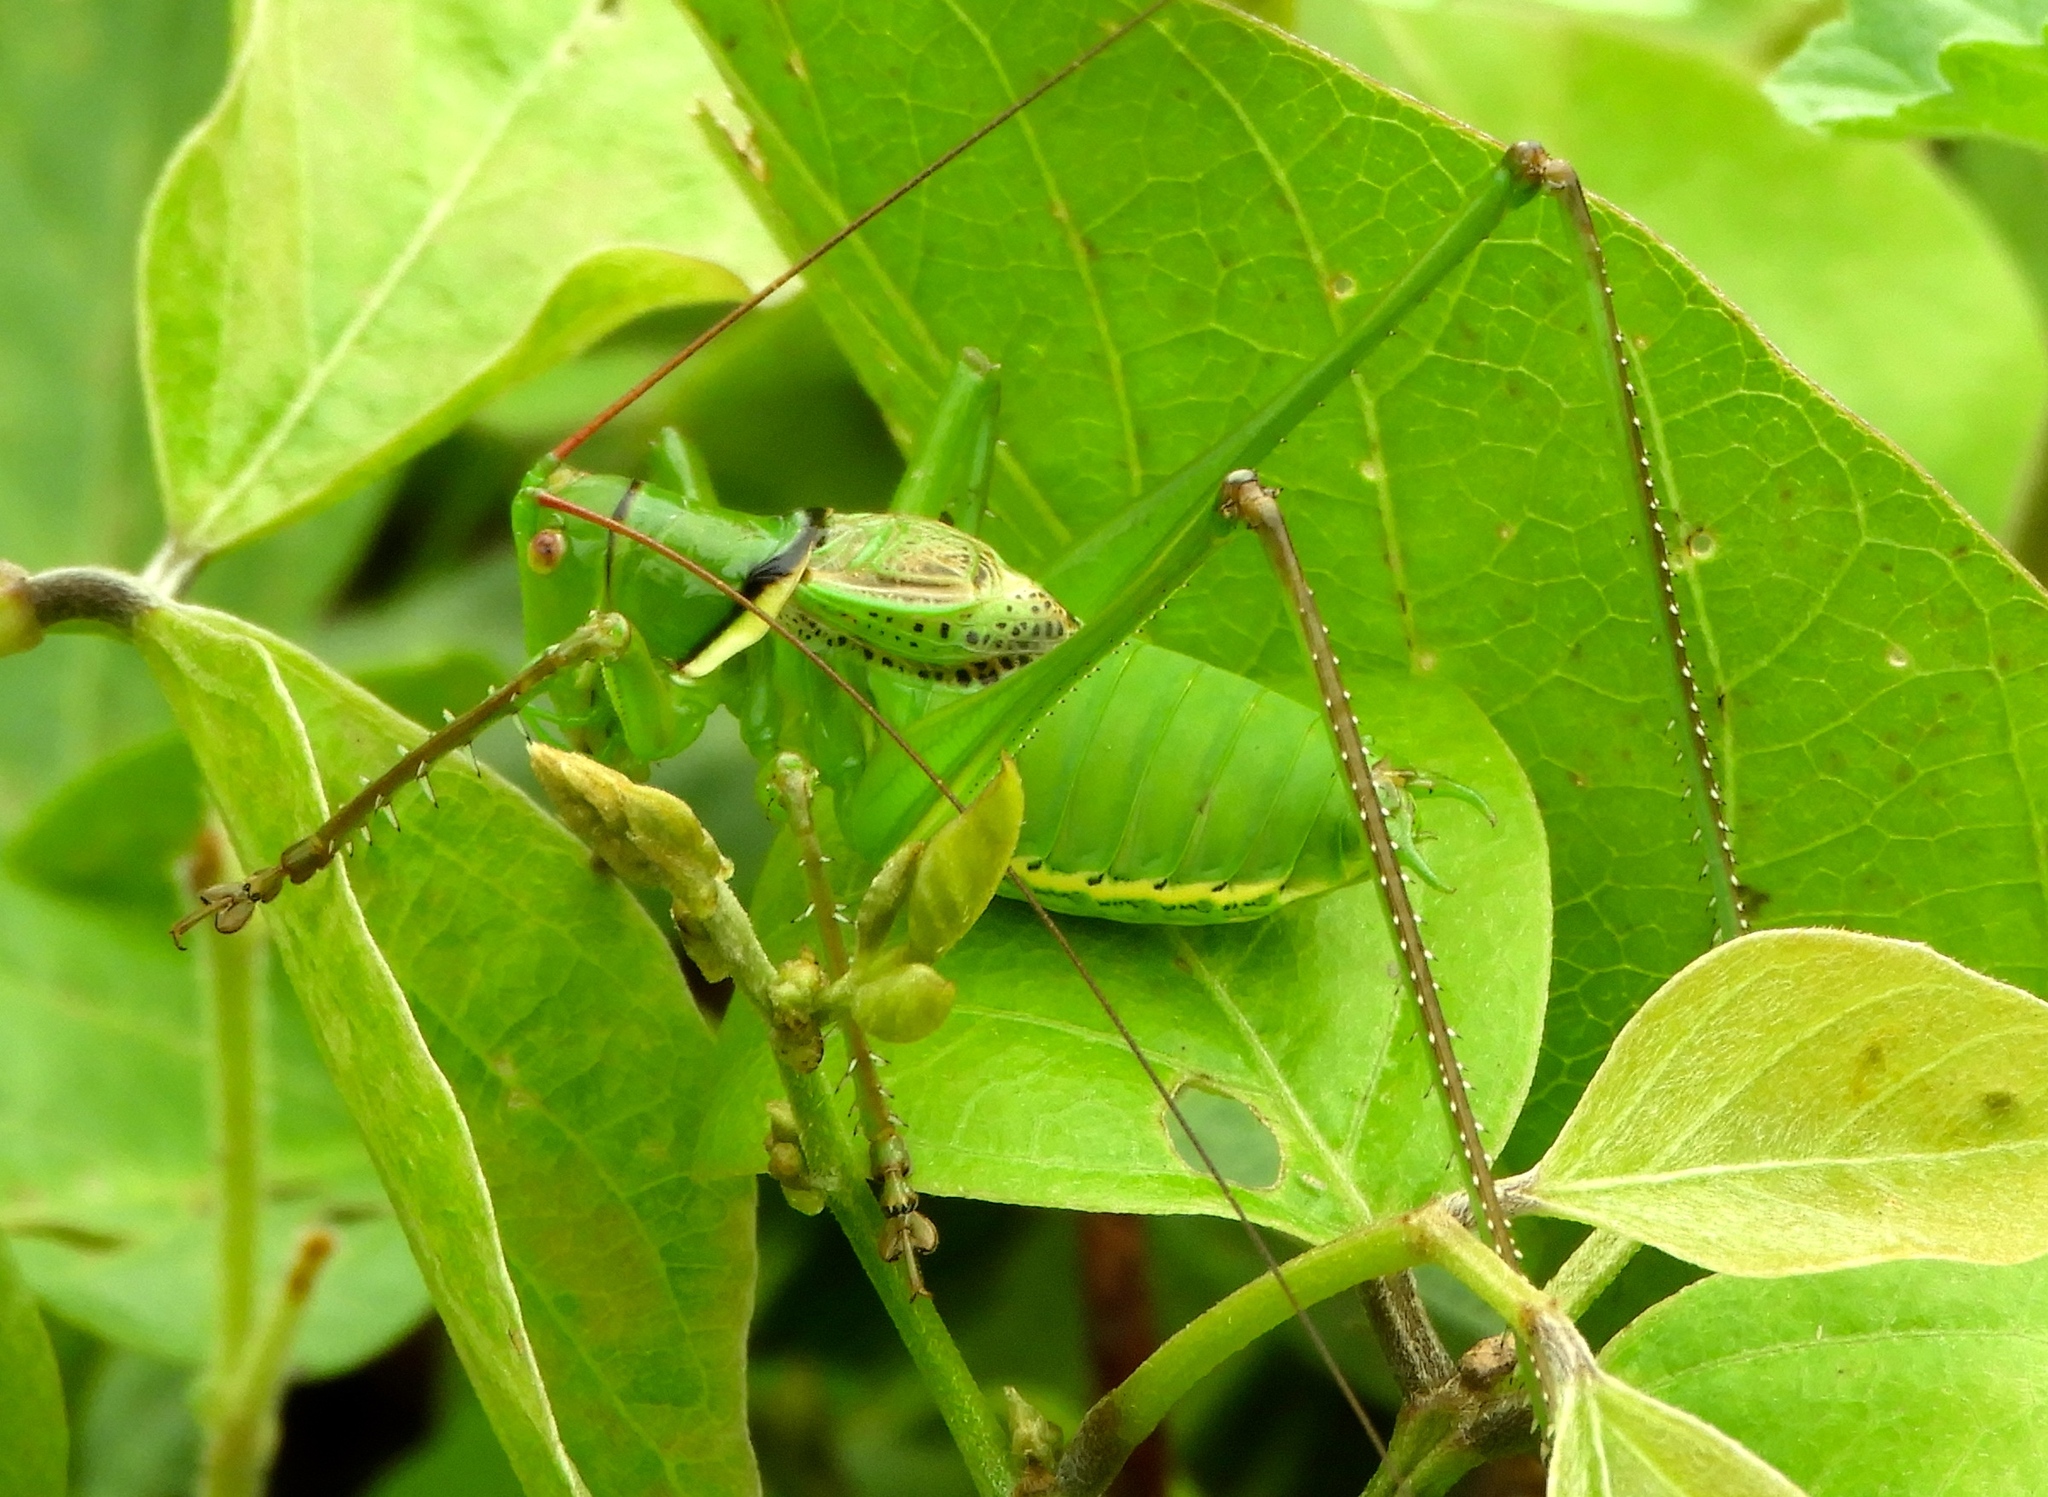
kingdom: Animalia
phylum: Arthropoda
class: Insecta
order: Orthoptera
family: Tettigoniidae
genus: Neobarrettia
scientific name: Neobarrettia sinaloae
